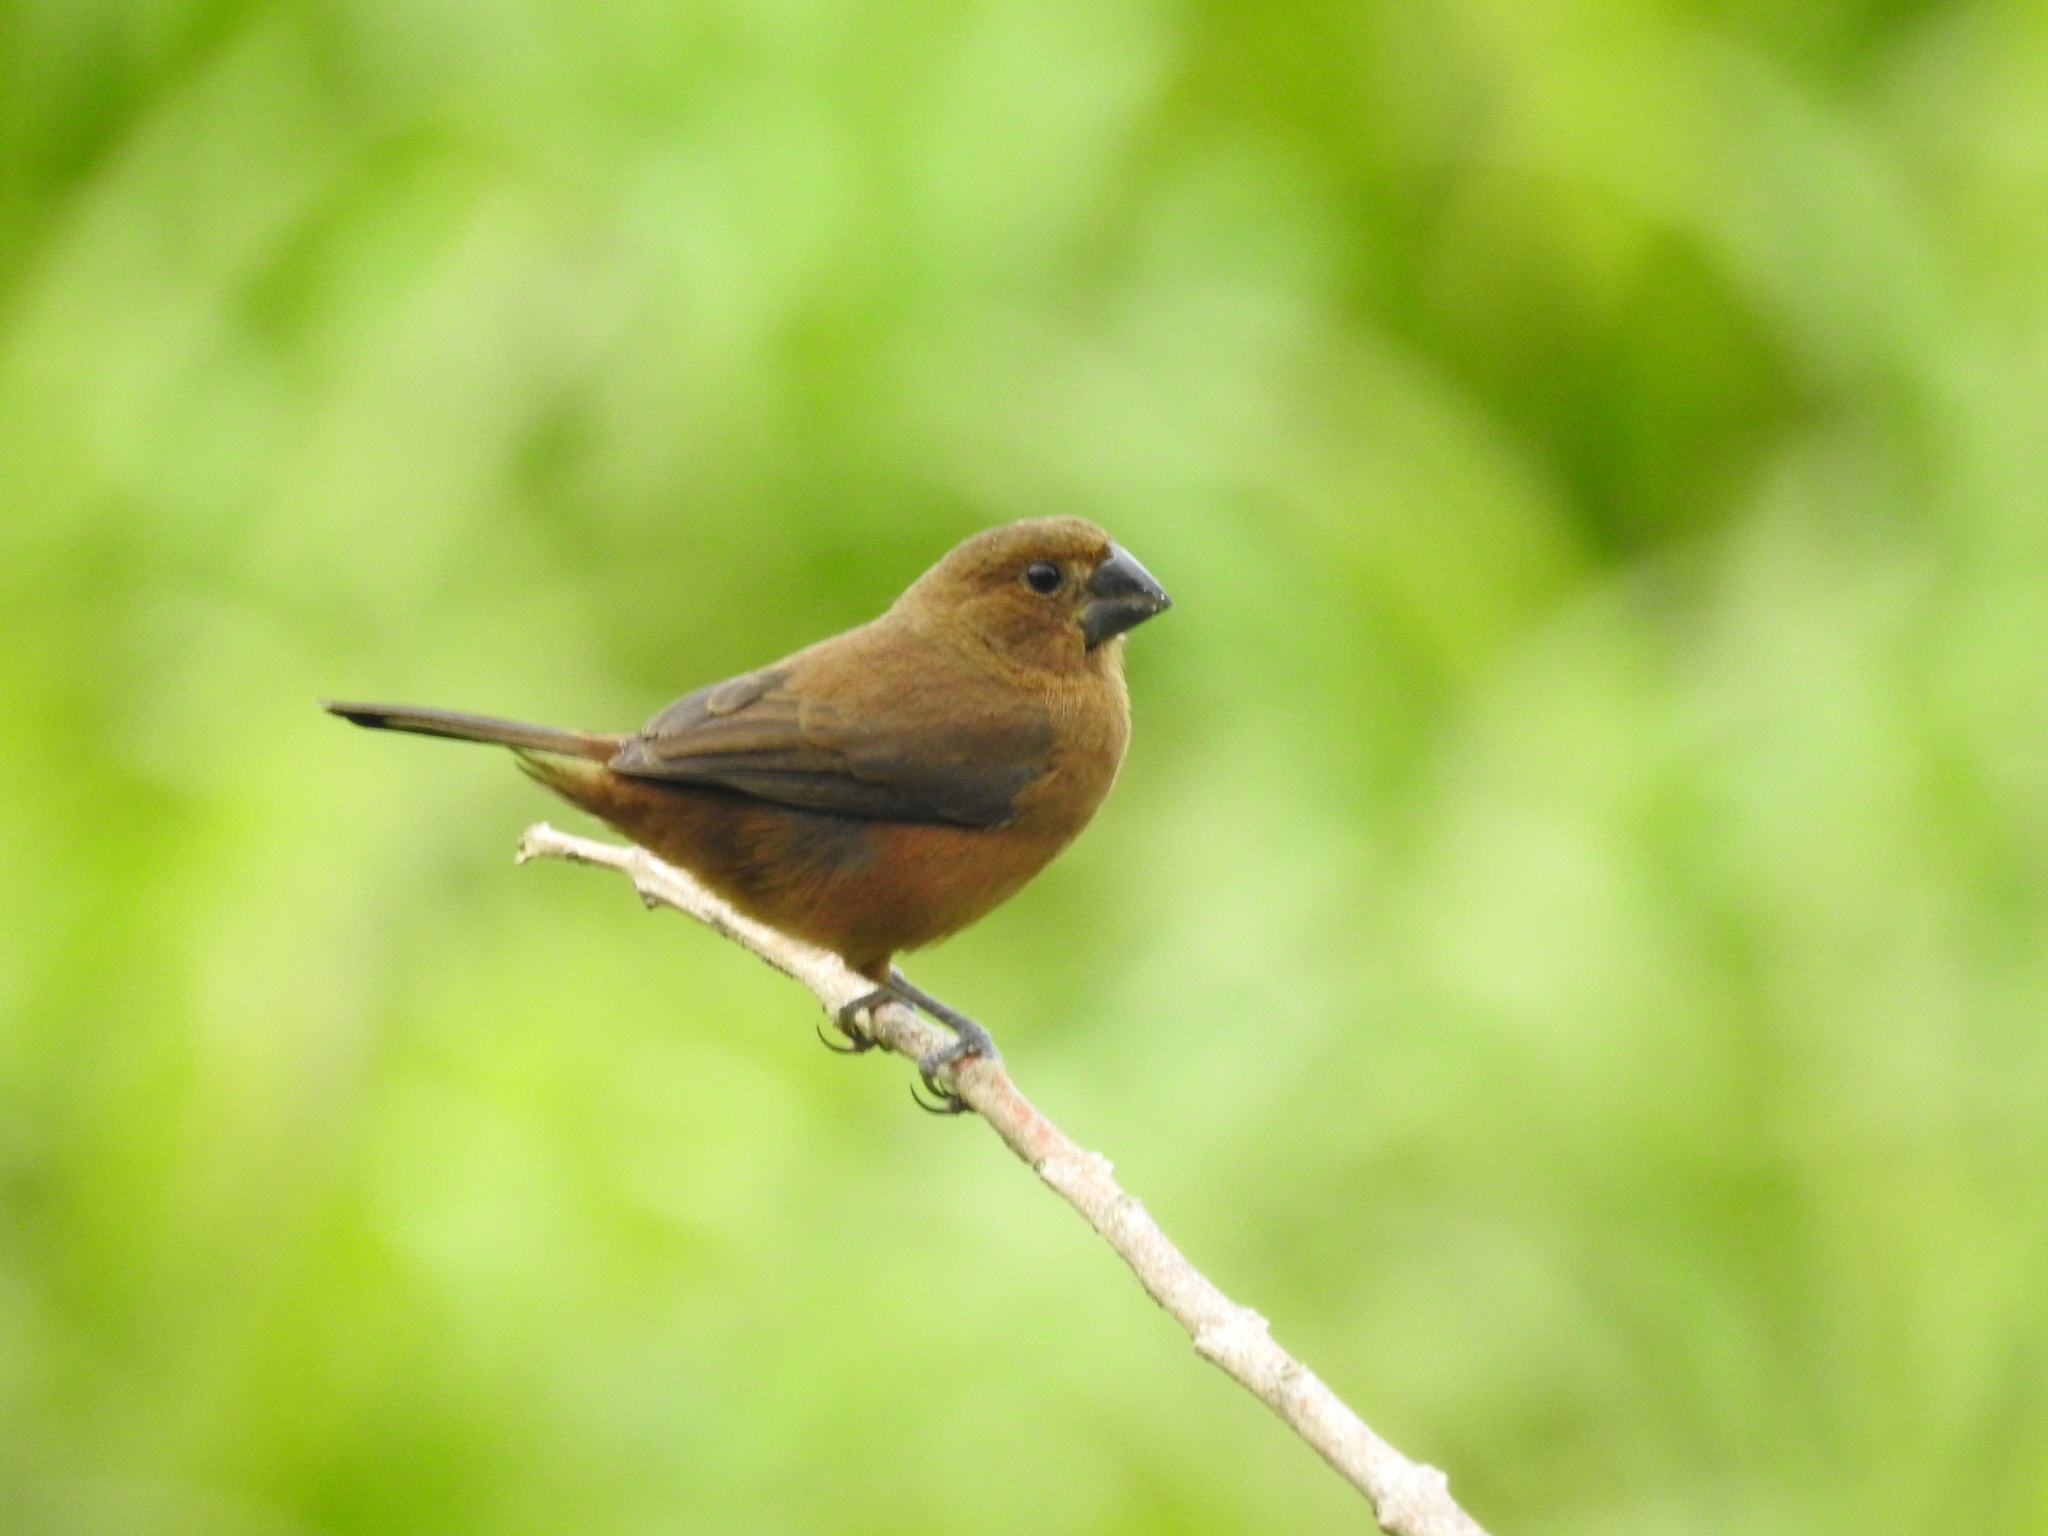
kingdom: Animalia
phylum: Chordata
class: Aves
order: Passeriformes
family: Thraupidae
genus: Sporophila
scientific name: Sporophila funerea
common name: Thick-billed seed-finch
